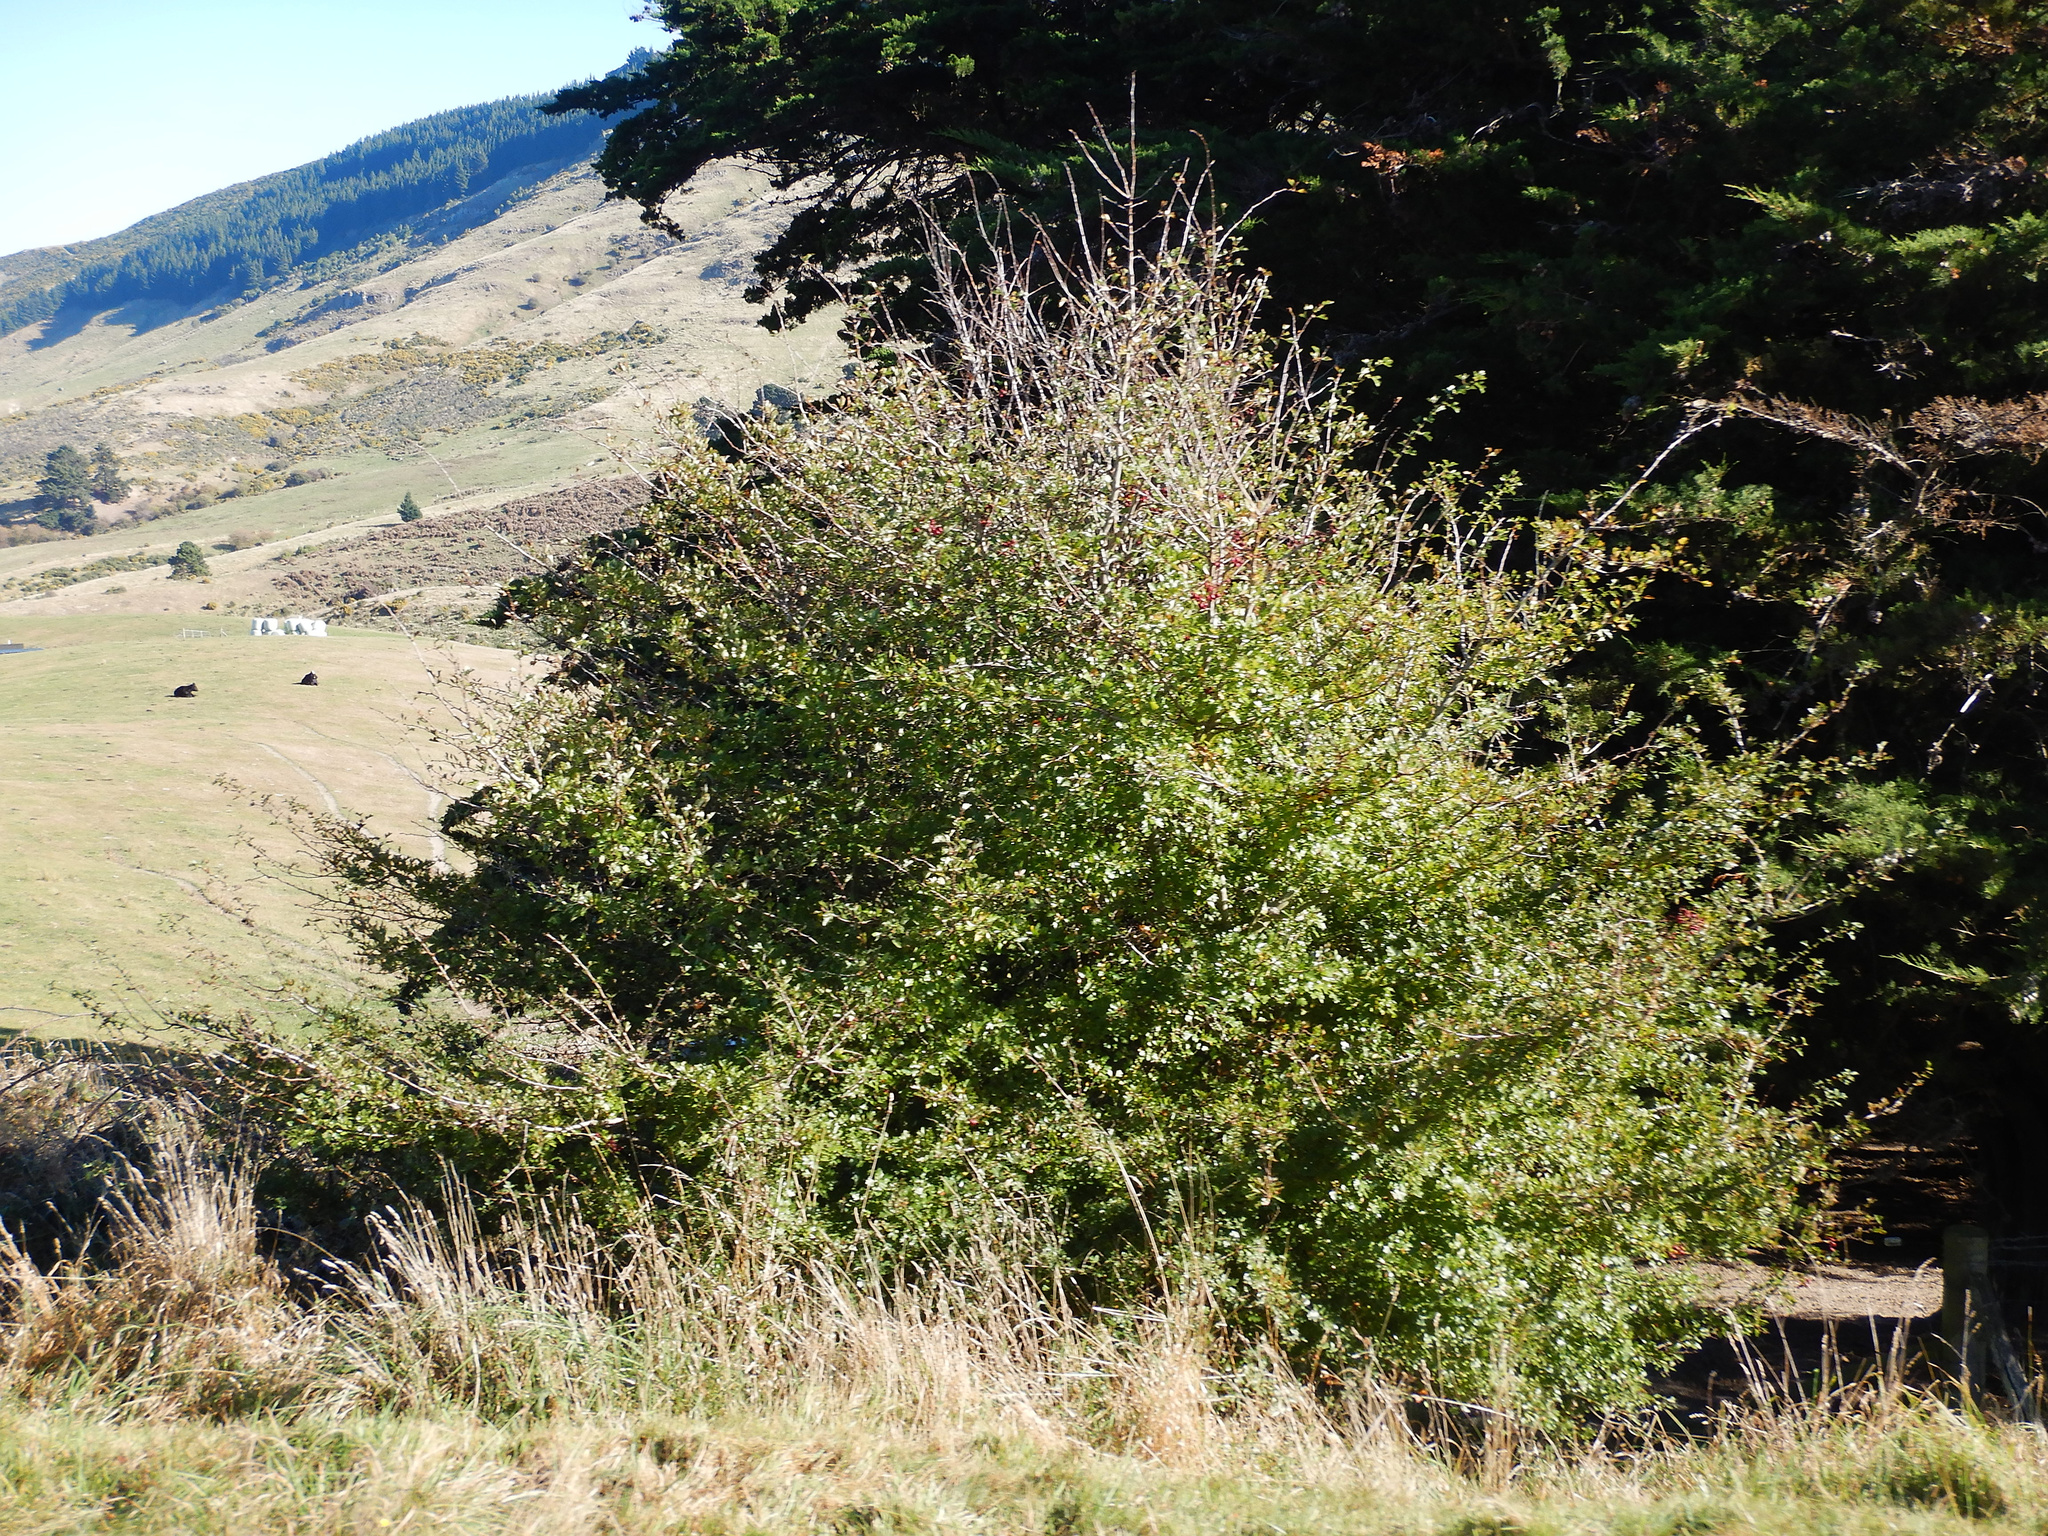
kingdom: Plantae
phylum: Tracheophyta
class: Magnoliopsida
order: Rosales
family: Rosaceae
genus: Crataegus
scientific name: Crataegus monogyna
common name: Hawthorn
